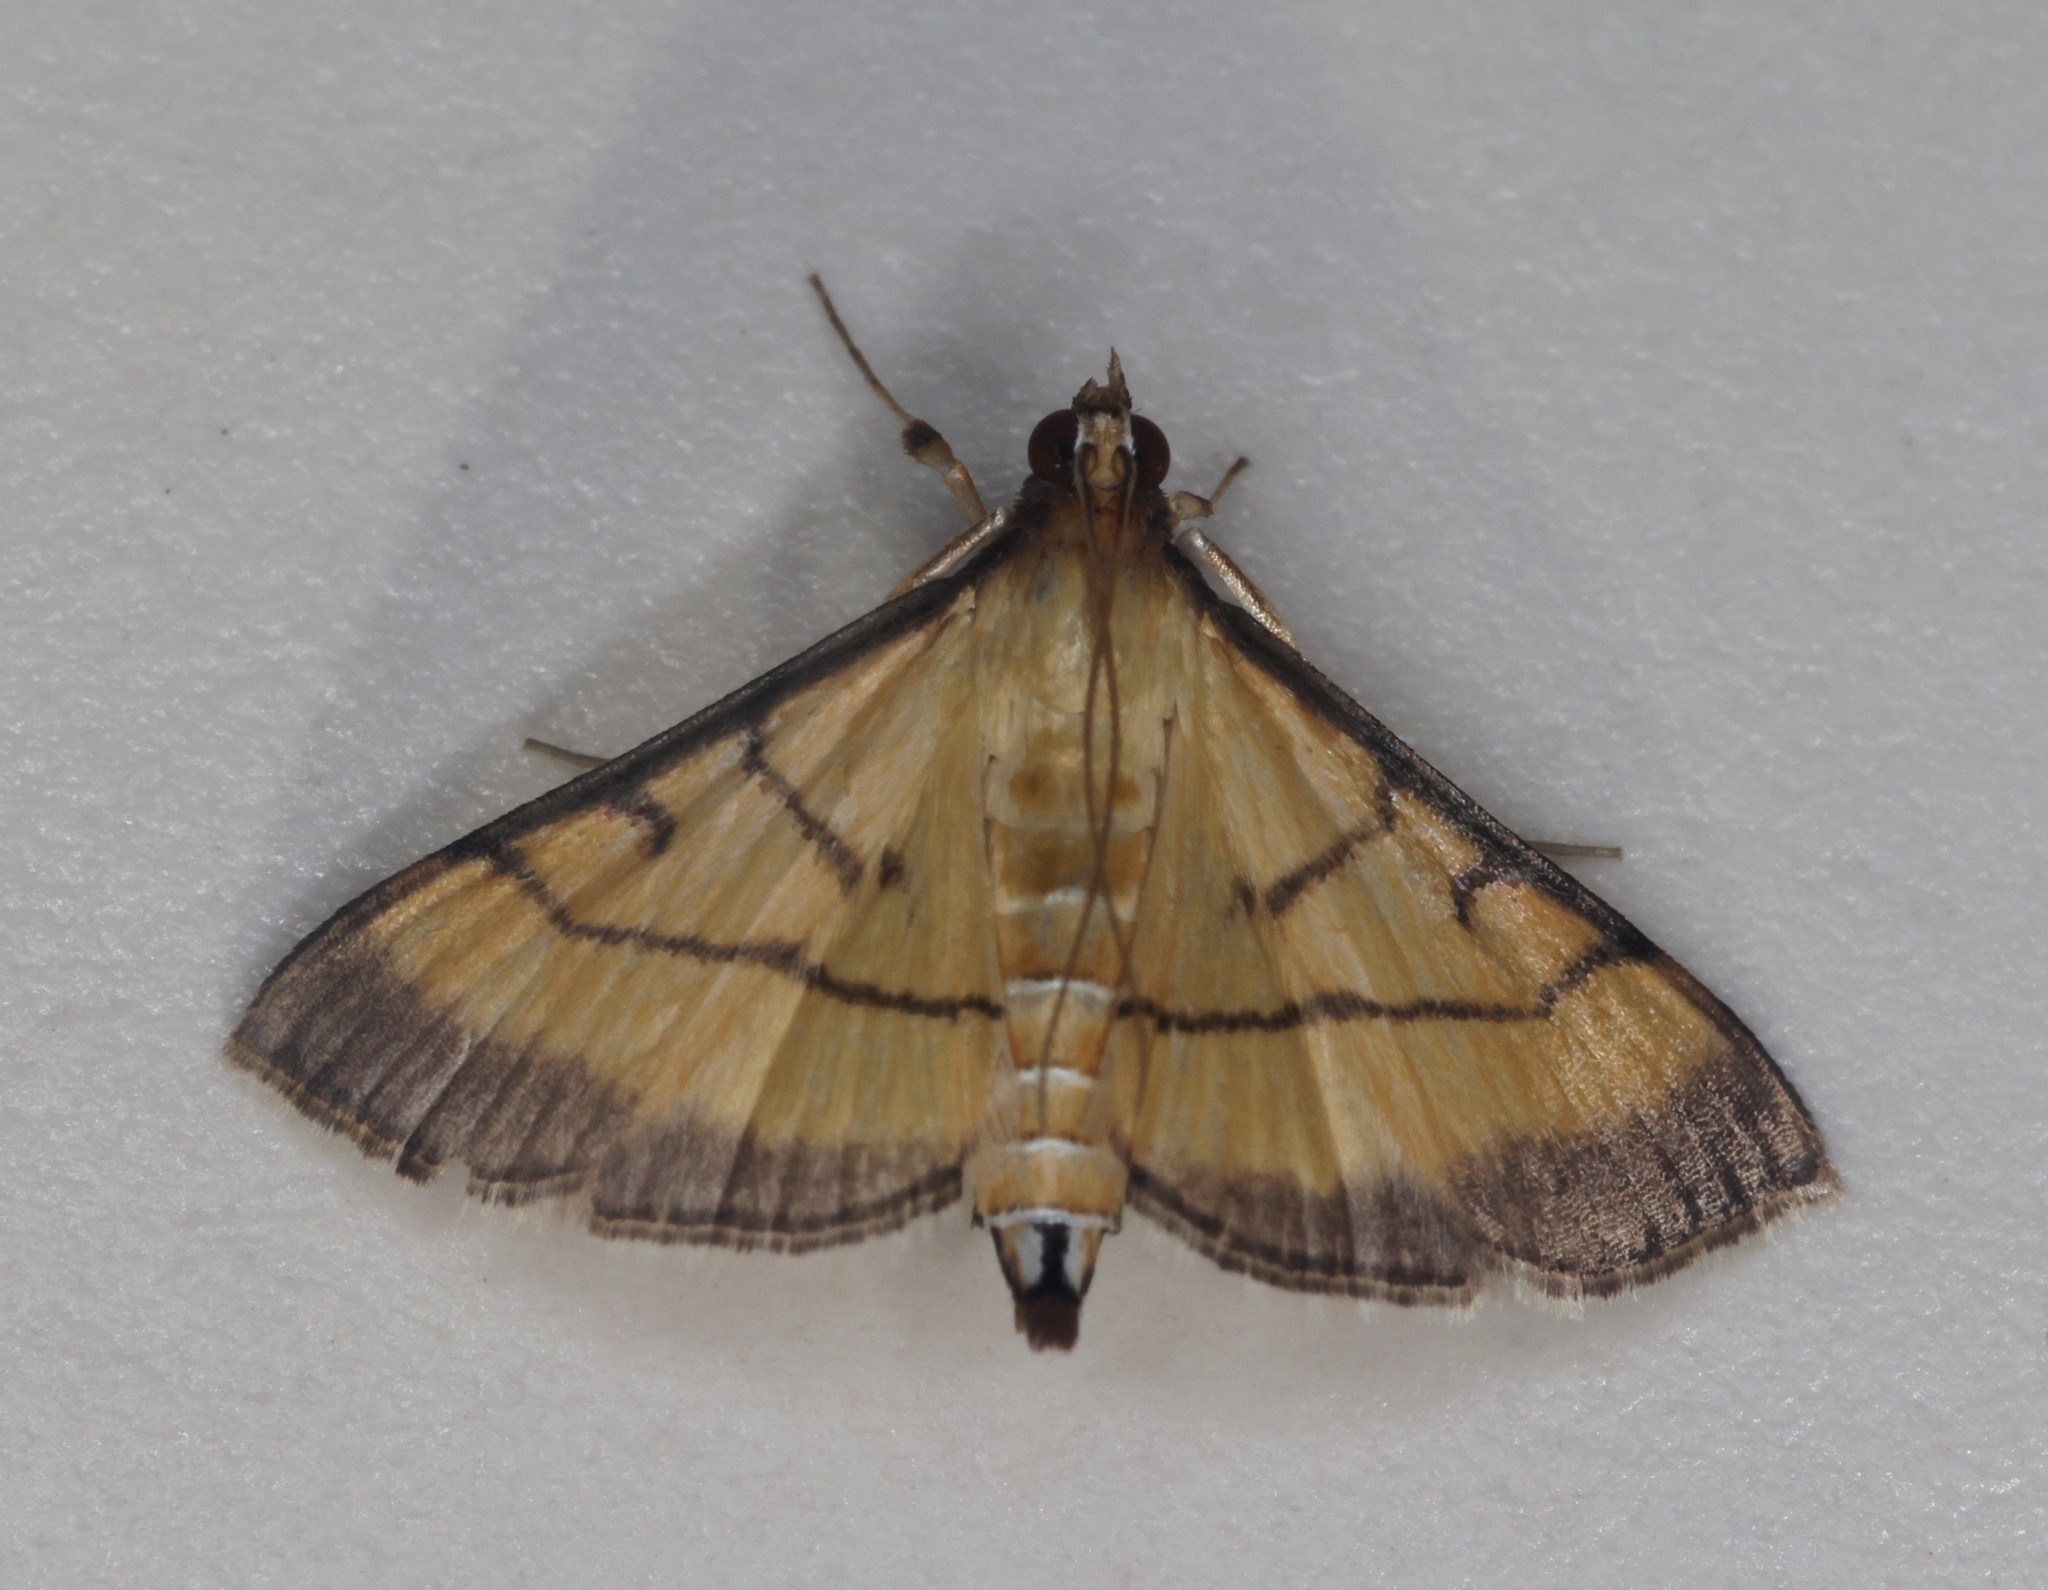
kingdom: Animalia
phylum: Arthropoda
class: Insecta
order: Lepidoptera
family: Crambidae
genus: Cnaphalocrocis
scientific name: Cnaphalocrocis medinalis
